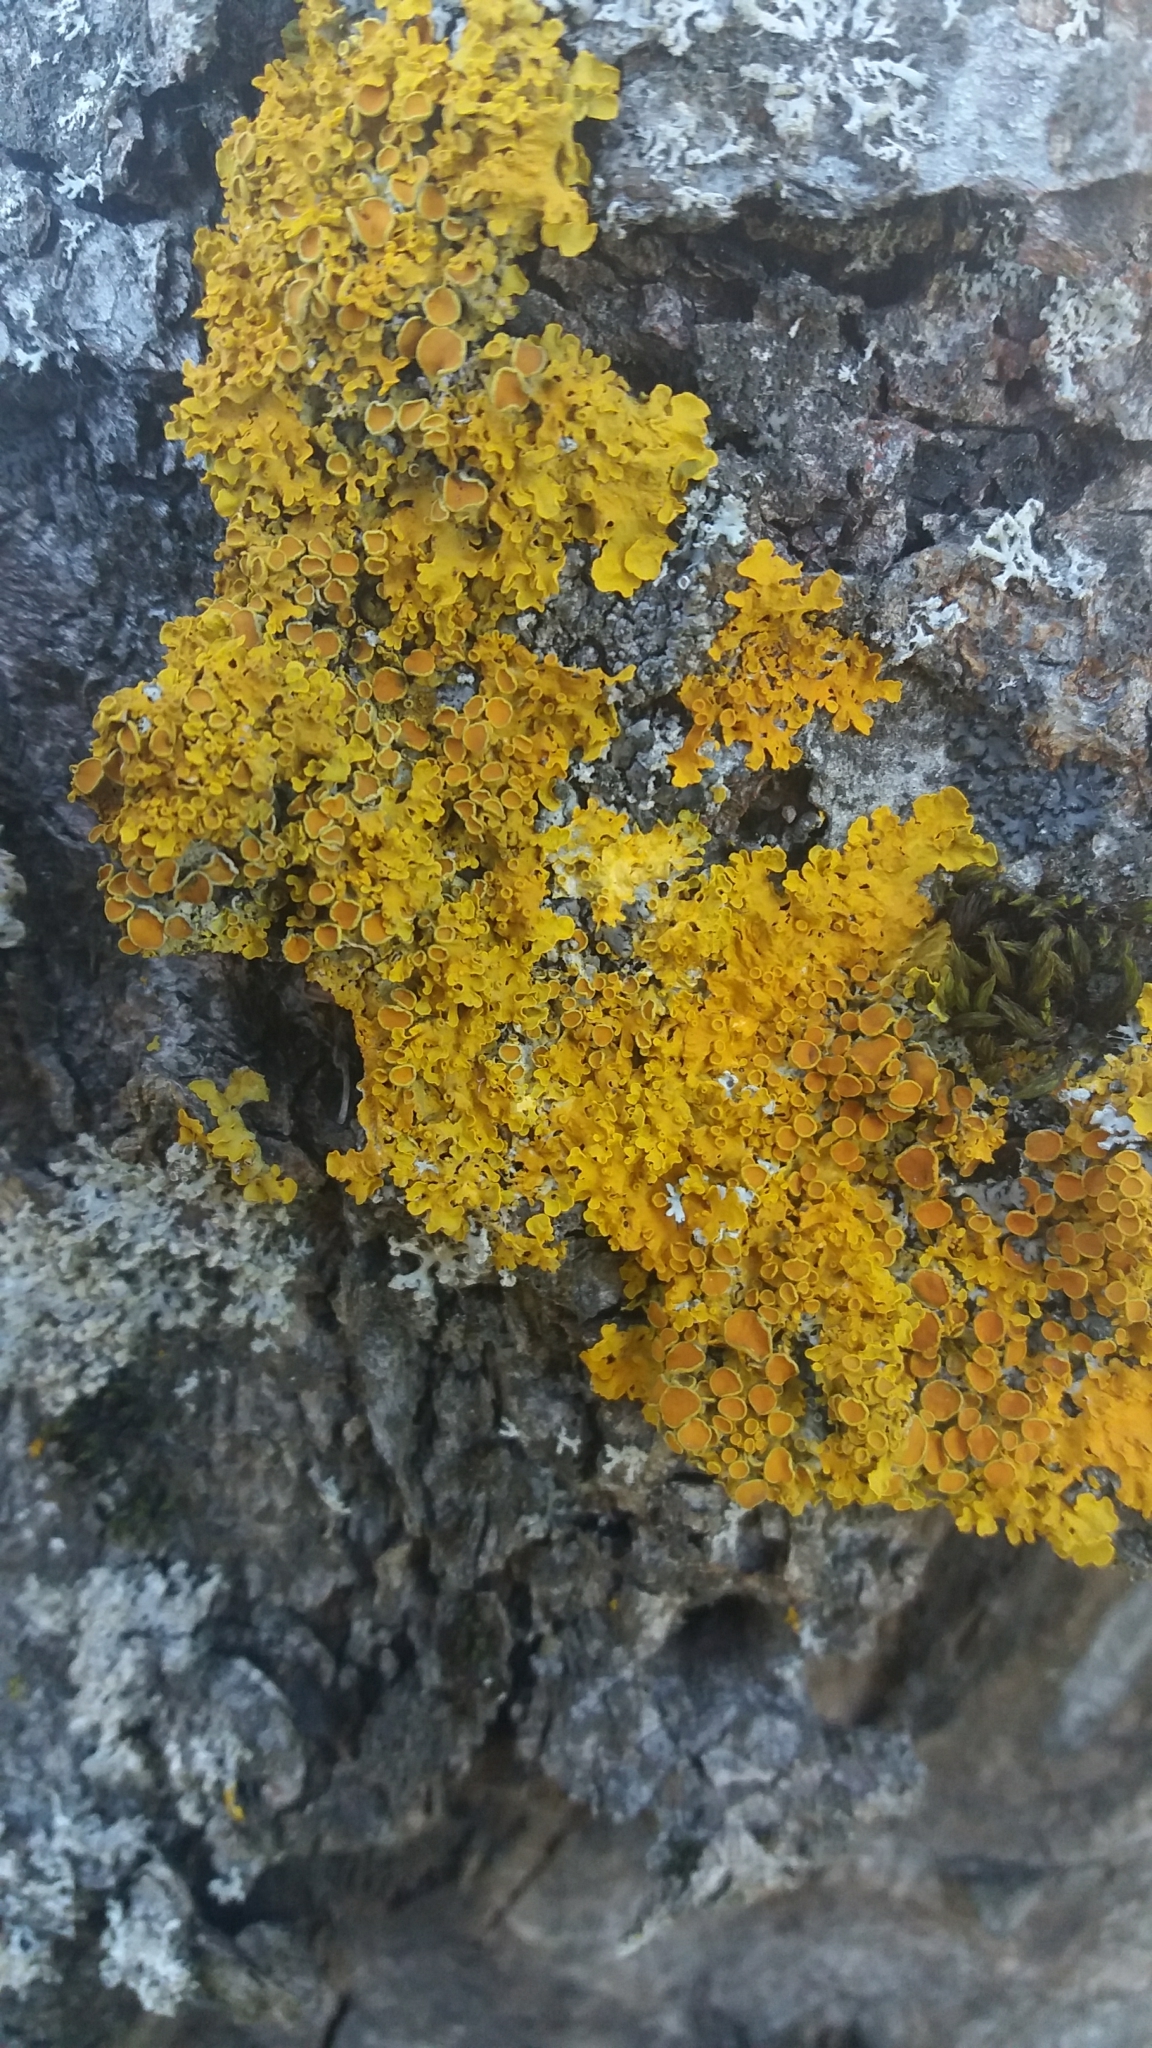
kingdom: Fungi
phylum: Ascomycota
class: Lecanoromycetes
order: Teloschistales
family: Teloschistaceae
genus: Xanthoria
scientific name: Xanthoria parietina
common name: Common orange lichen
